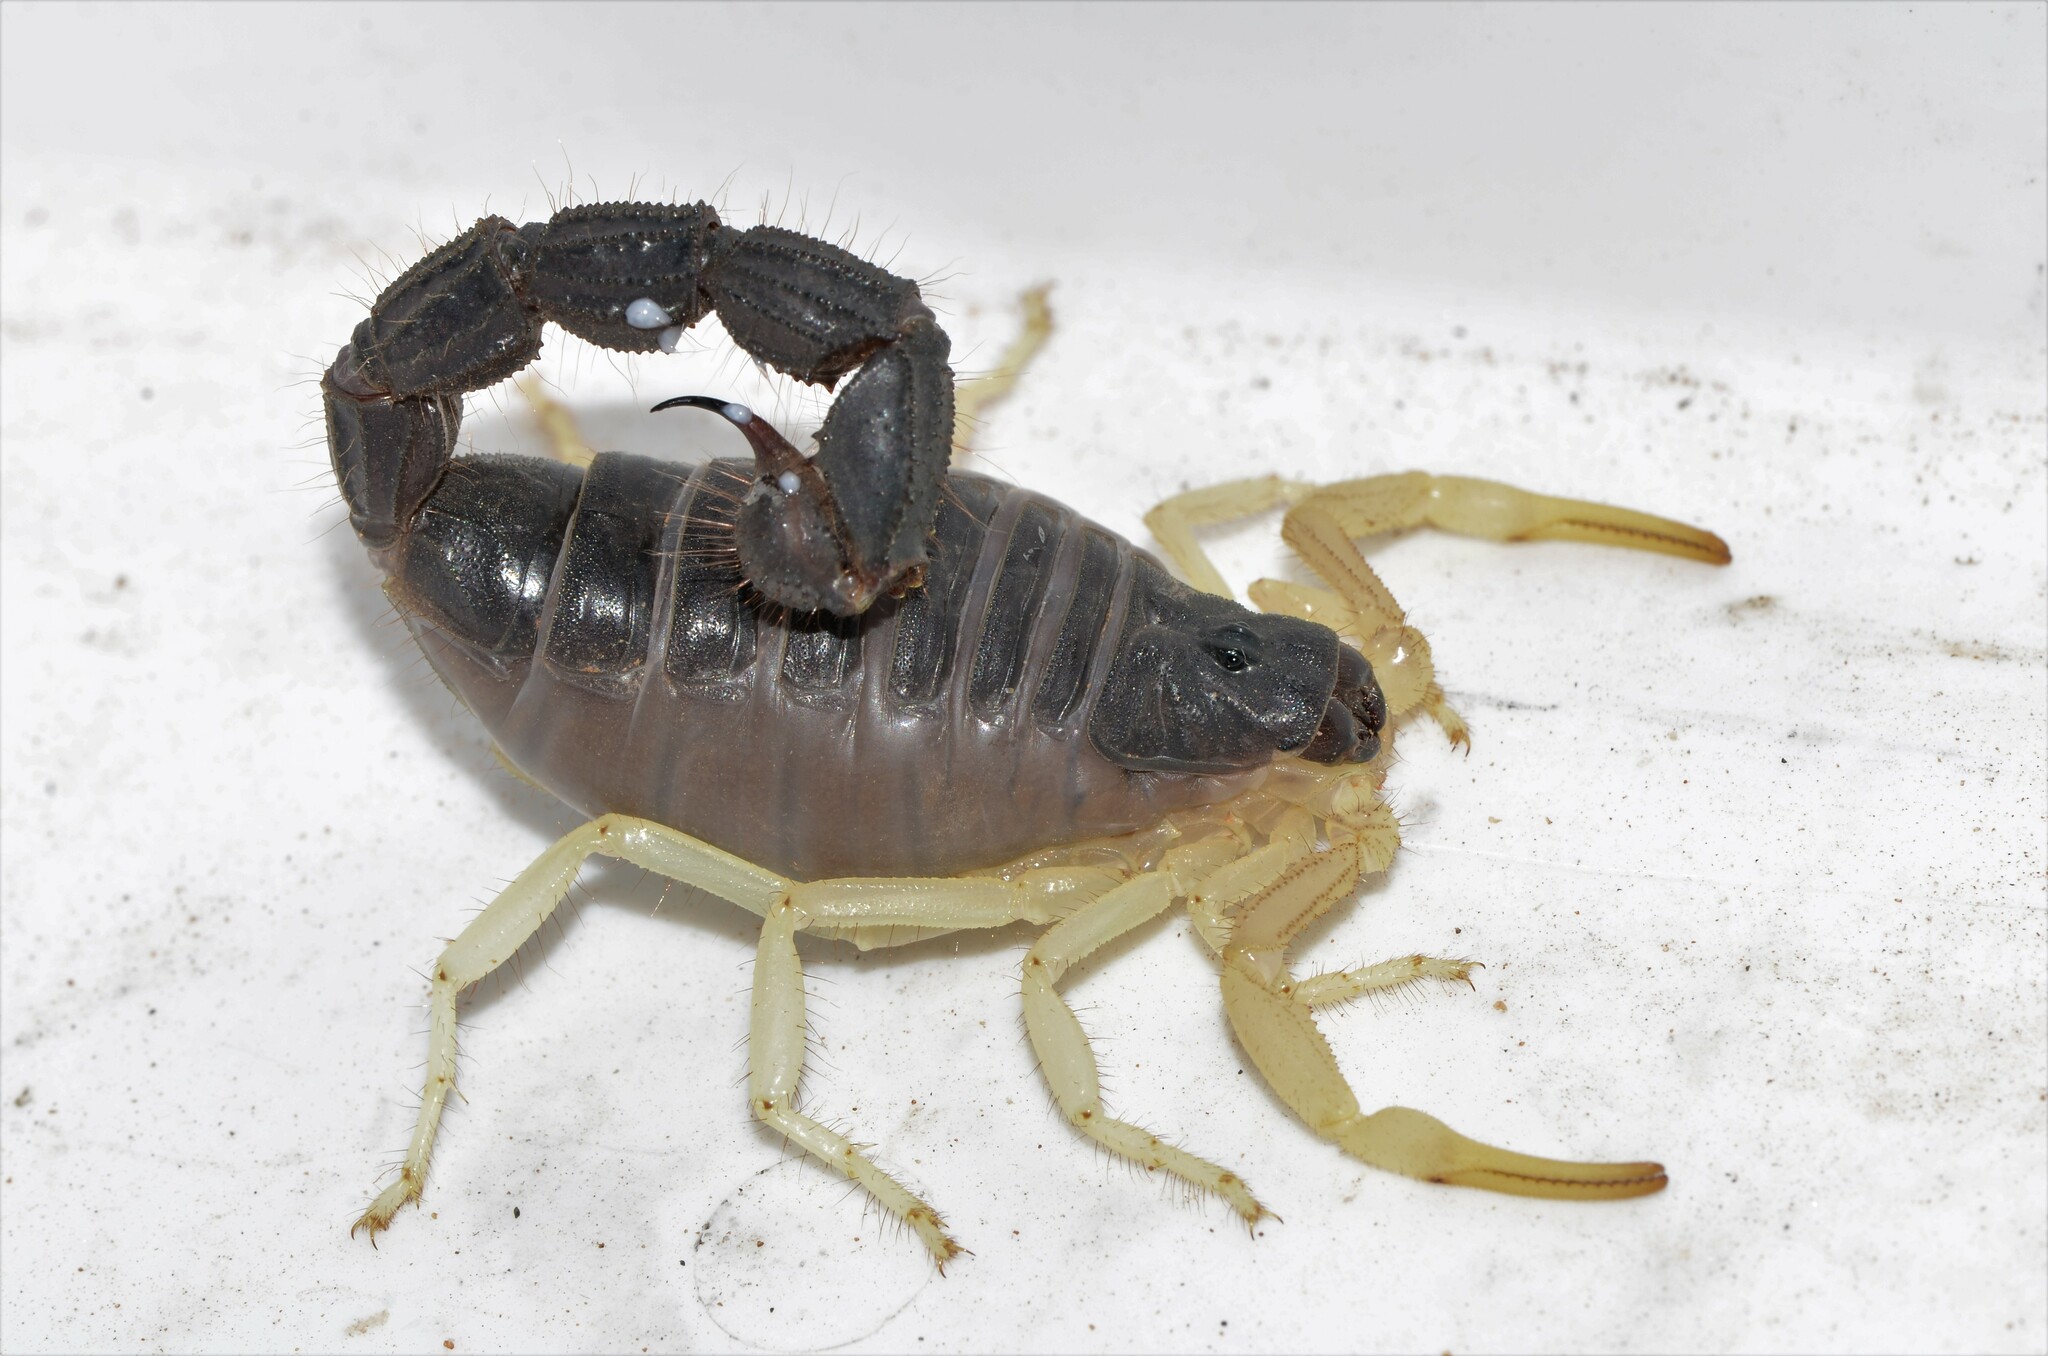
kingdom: Animalia
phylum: Arthropoda
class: Arachnida
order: Scorpiones
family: Buthidae
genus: Parabuthus
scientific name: Parabuthus schlechteri
